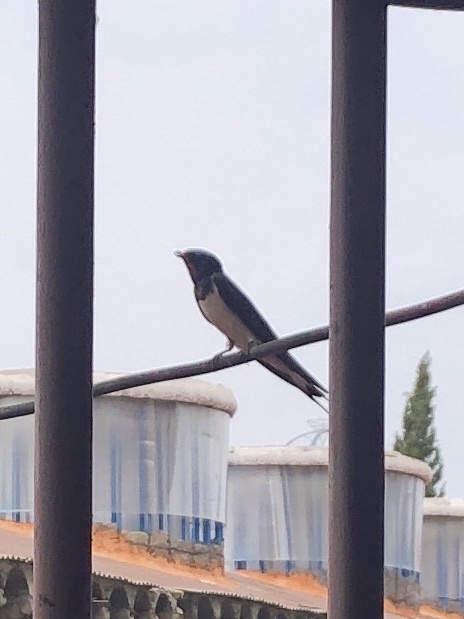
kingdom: Animalia
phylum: Chordata
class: Aves
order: Passeriformes
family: Hirundinidae
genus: Hirundo
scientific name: Hirundo rustica
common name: Barn swallow
